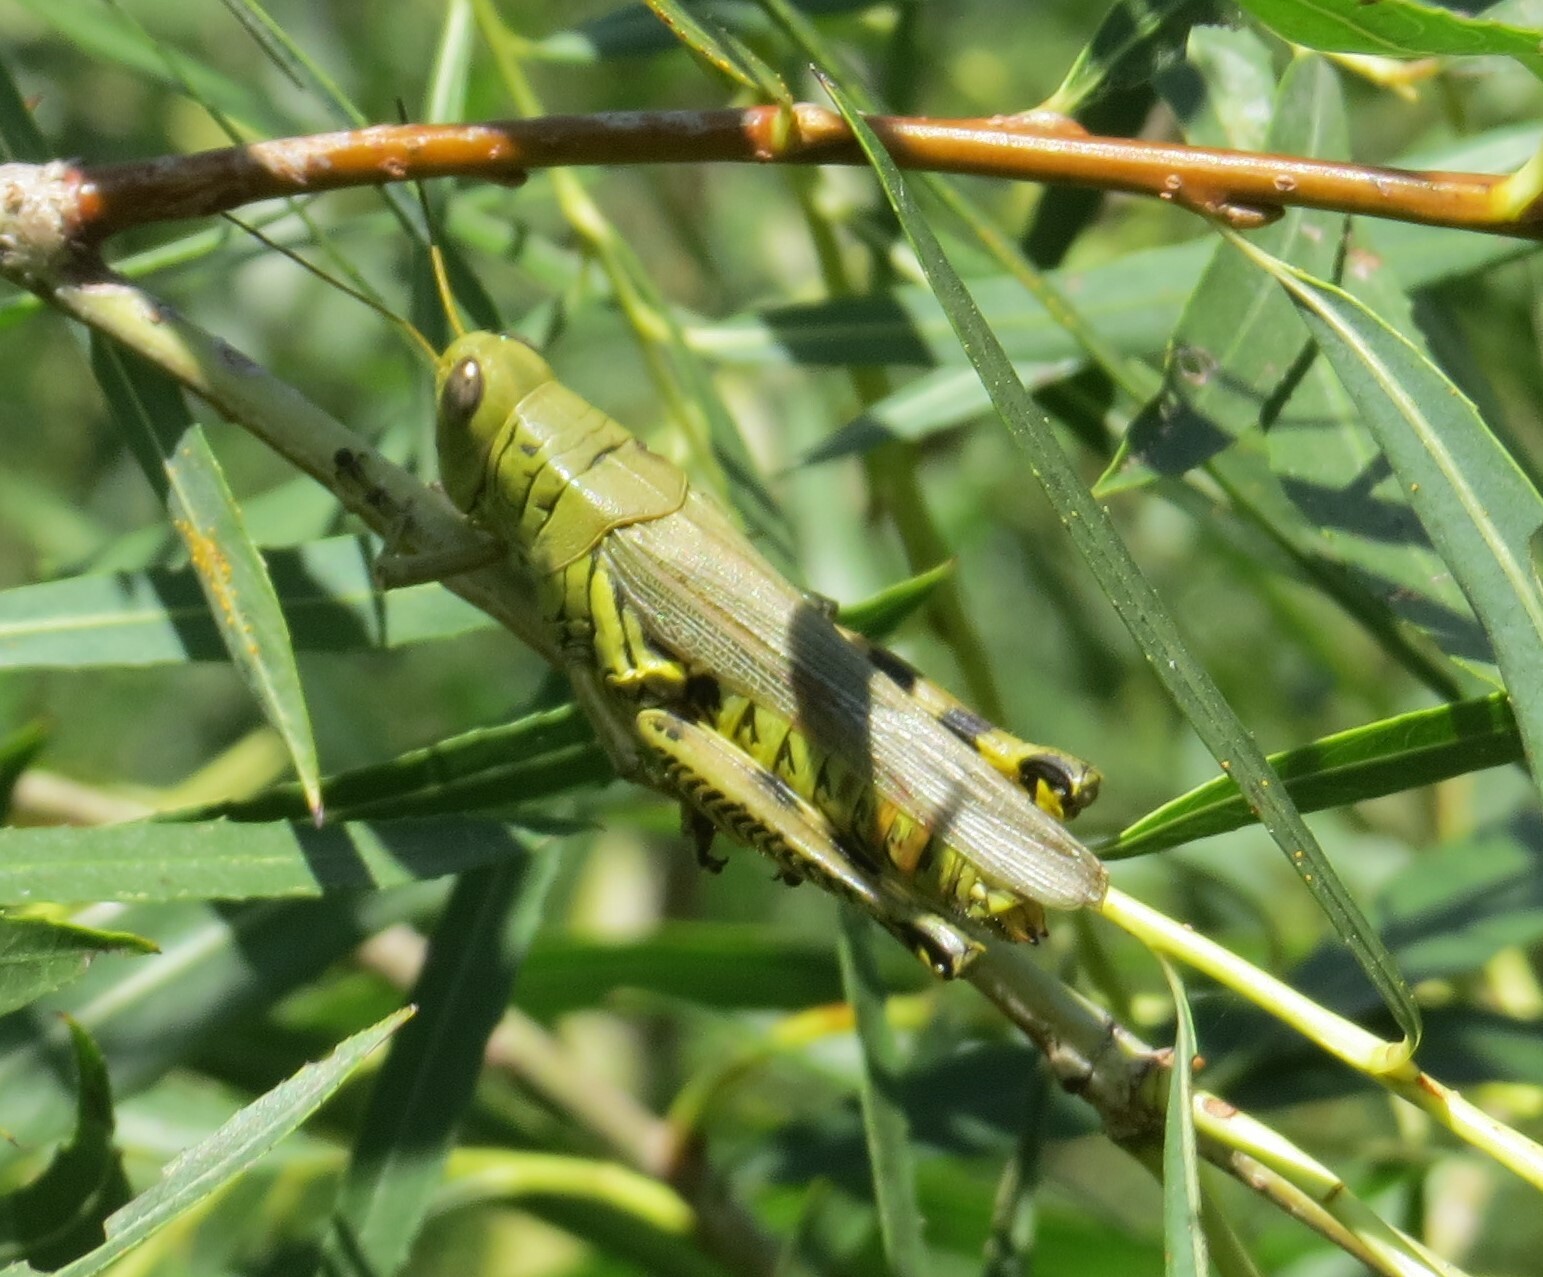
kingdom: Animalia
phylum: Arthropoda
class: Insecta
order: Orthoptera
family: Acrididae
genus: Melanoplus
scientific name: Melanoplus differentialis
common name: Differential grasshopper
